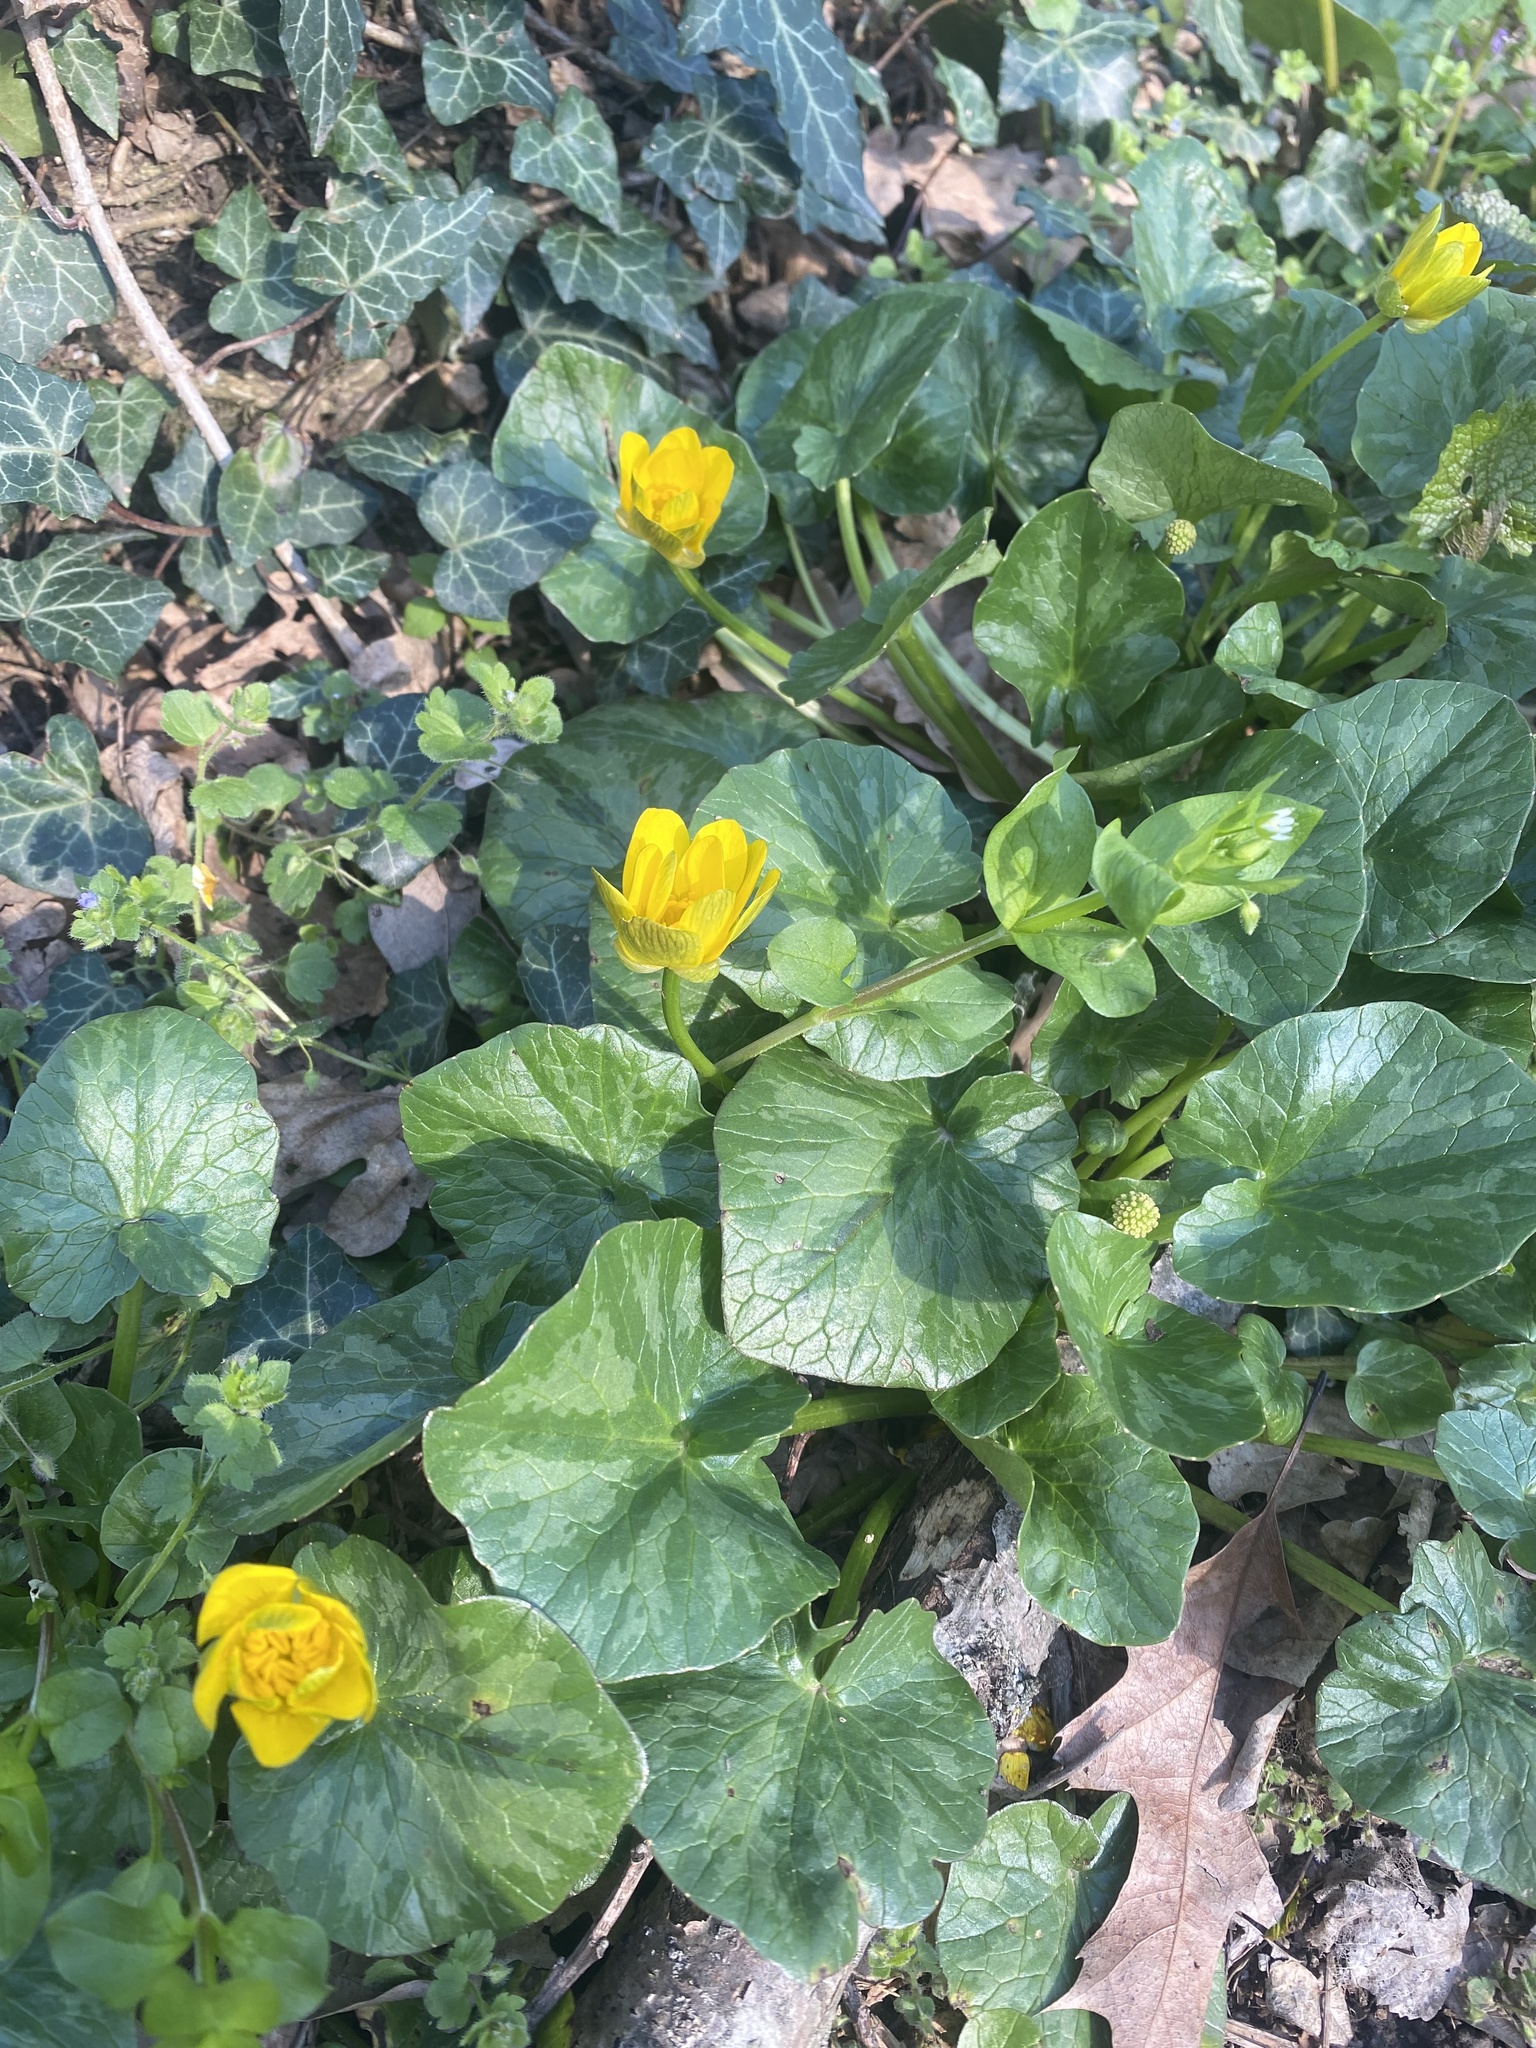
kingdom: Plantae
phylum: Tracheophyta
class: Magnoliopsida
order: Ranunculales
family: Ranunculaceae
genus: Ficaria
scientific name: Ficaria verna
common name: Lesser celandine
